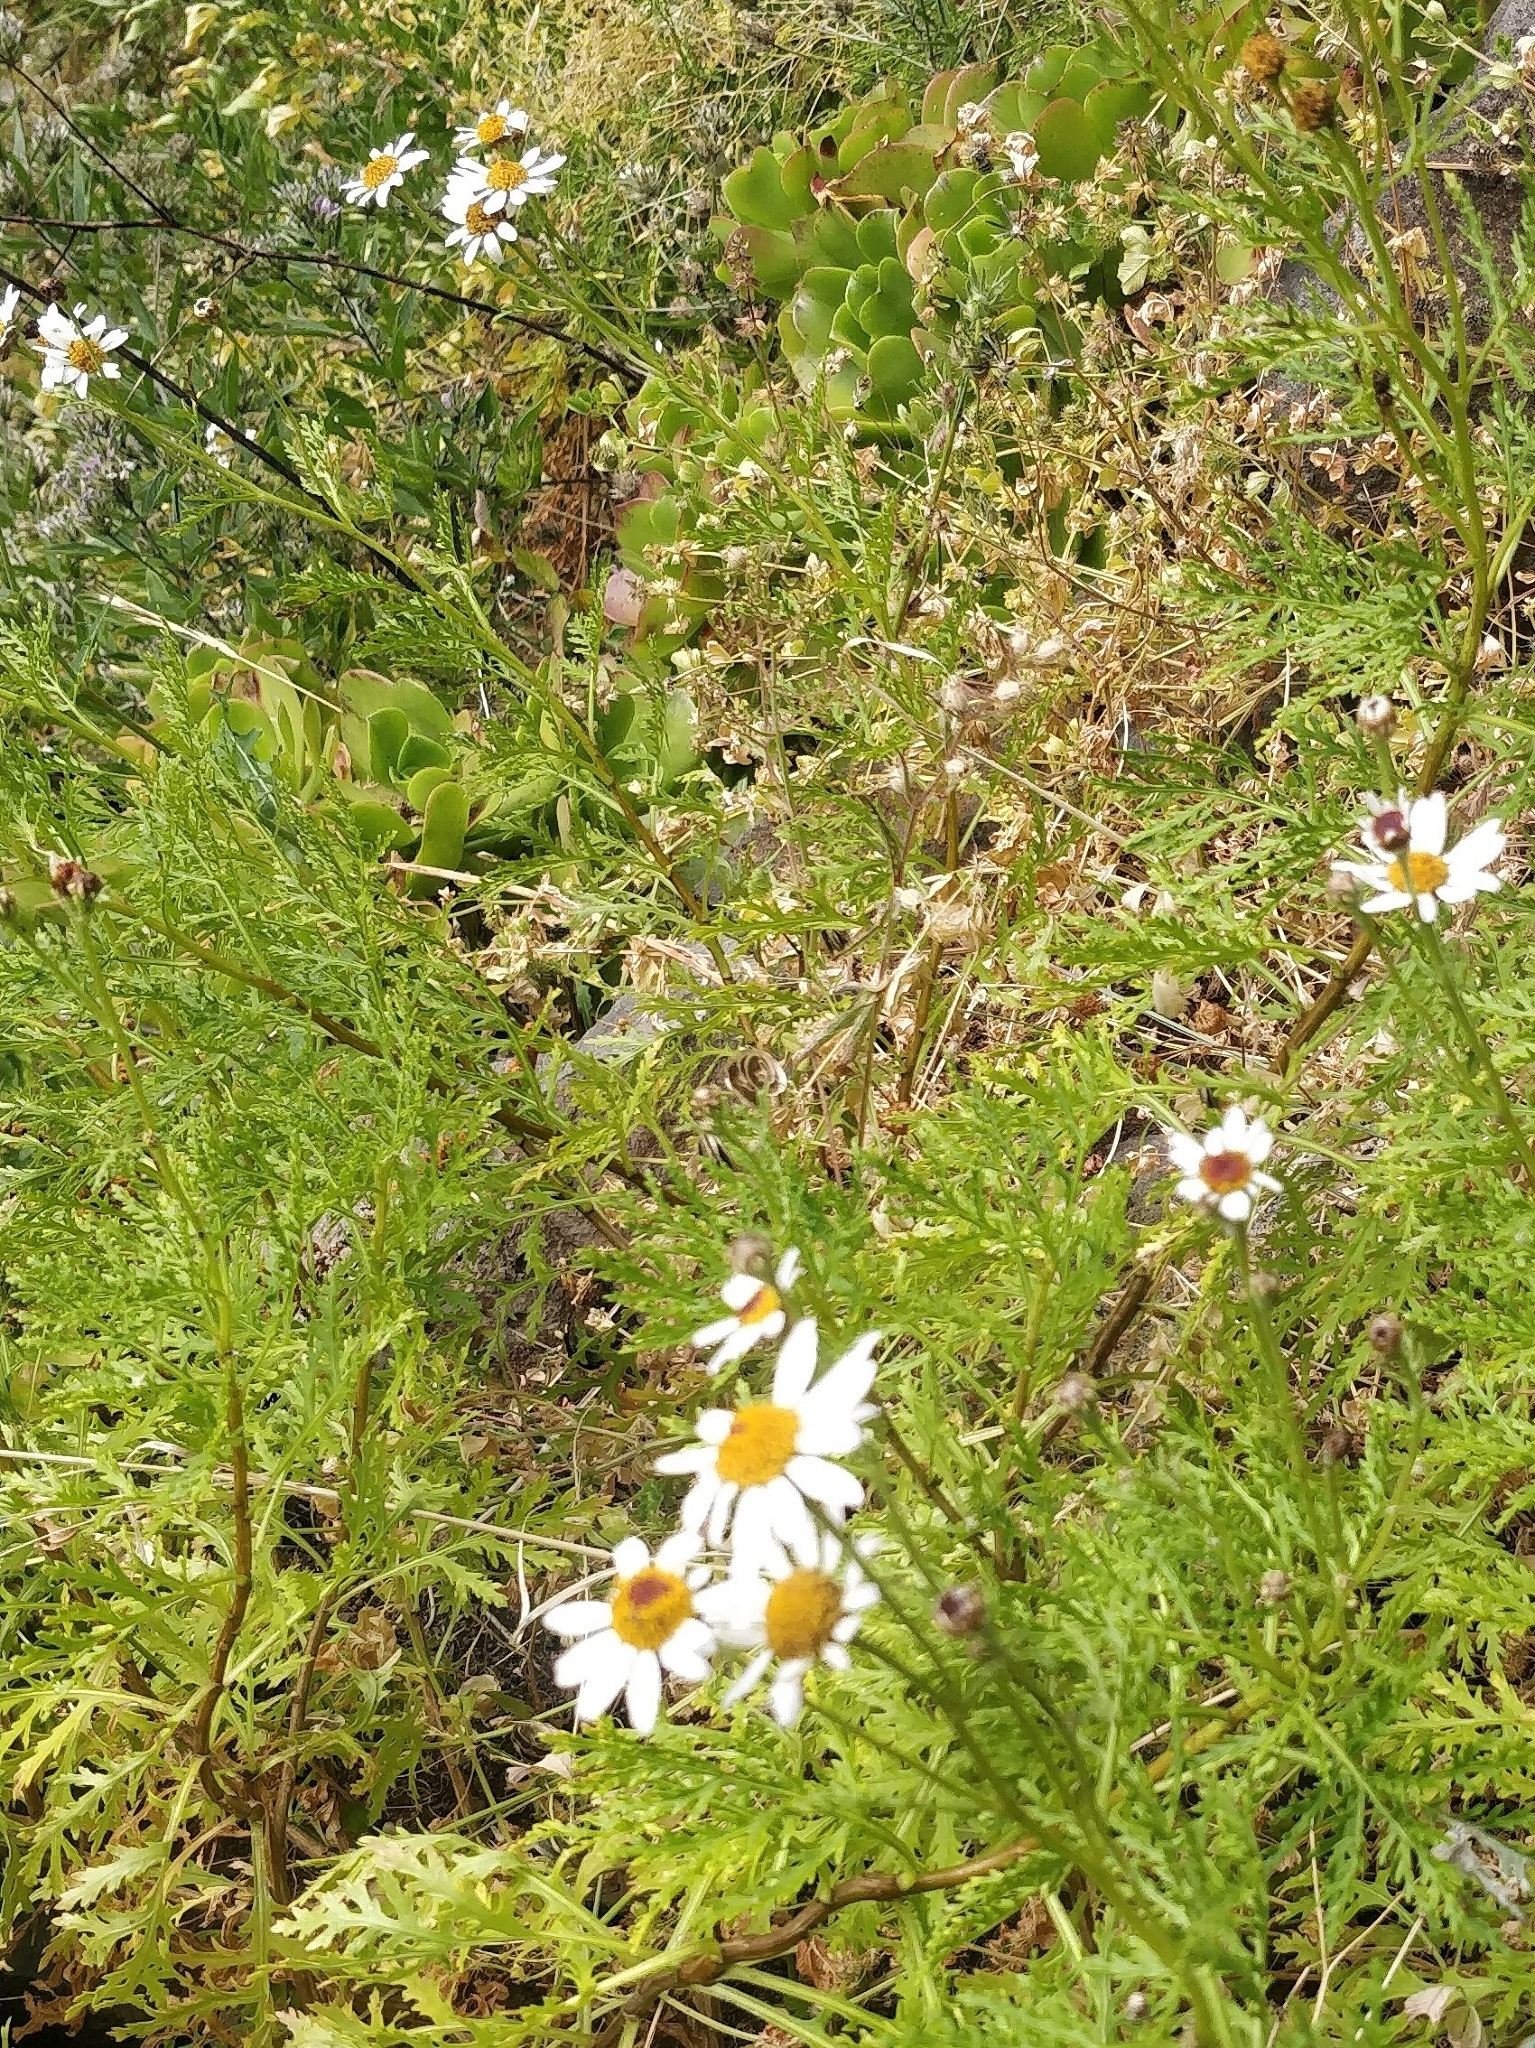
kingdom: Plantae
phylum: Tracheophyta
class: Magnoliopsida
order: Asterales
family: Asteraceae
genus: Argyranthemum
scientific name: Argyranthemum haematomma
